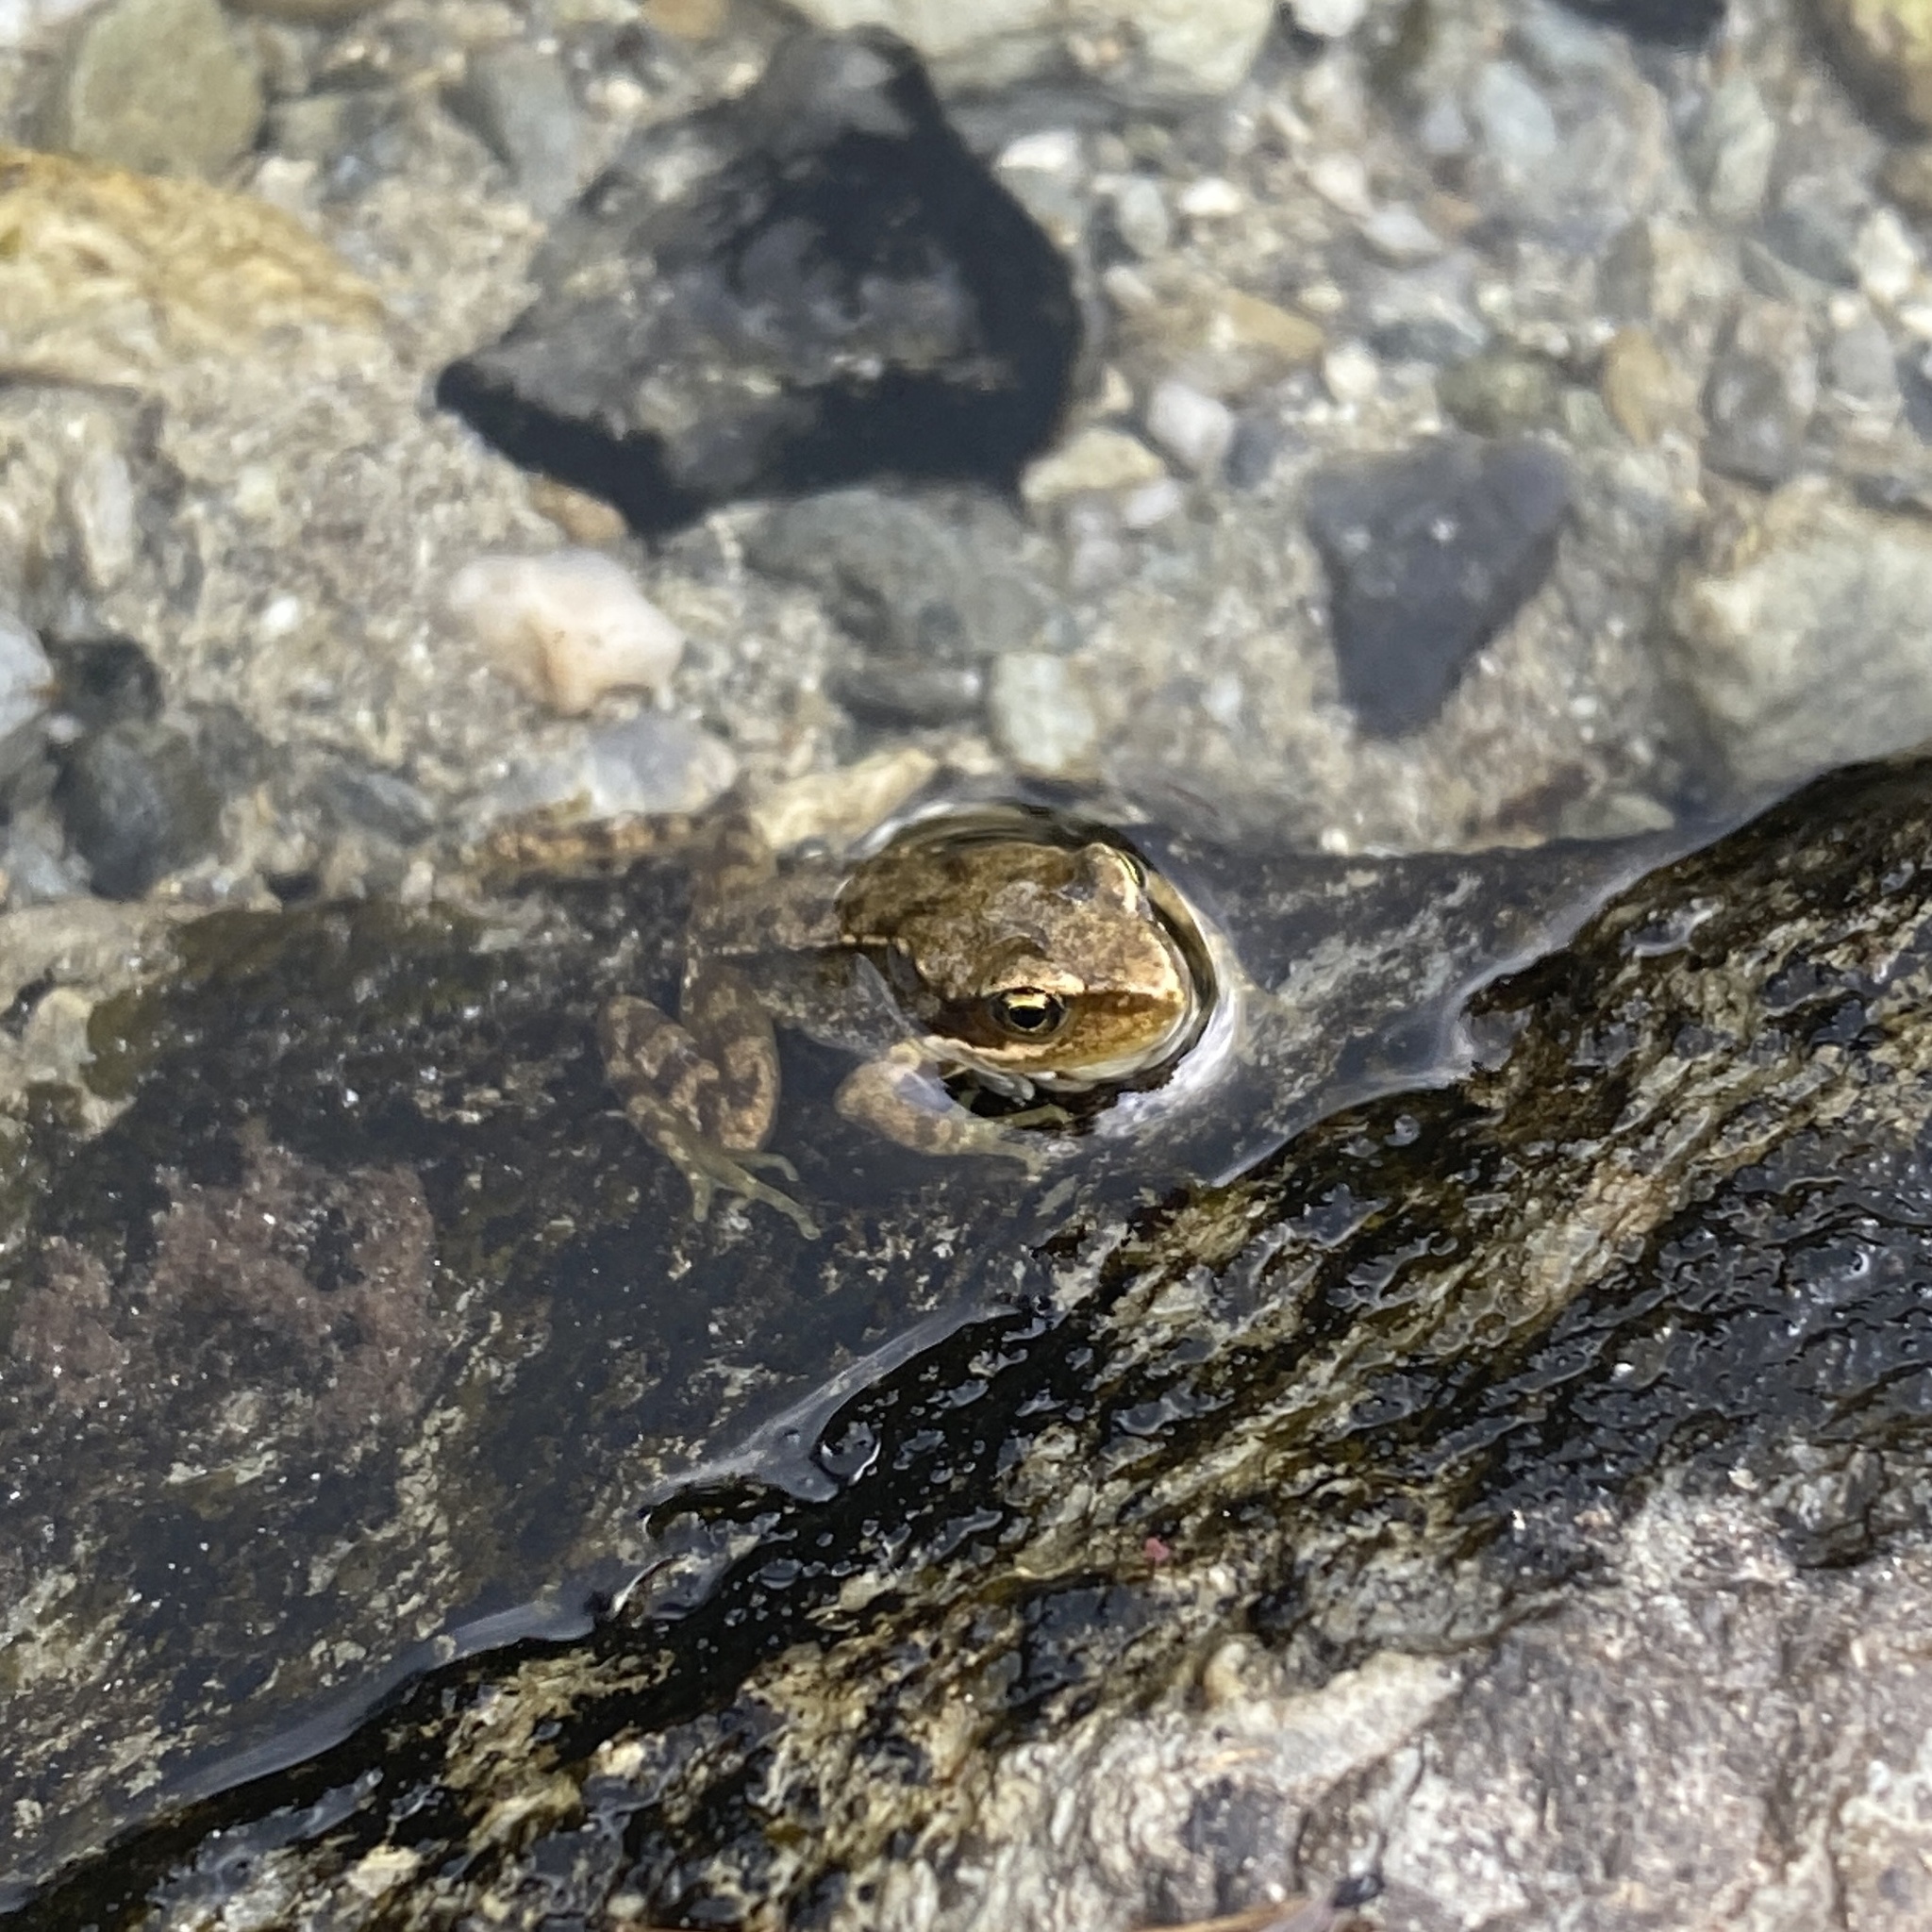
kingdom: Animalia
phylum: Chordata
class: Amphibia
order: Anura
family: Ranidae
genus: Rana
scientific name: Rana temporaria
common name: Common frog
